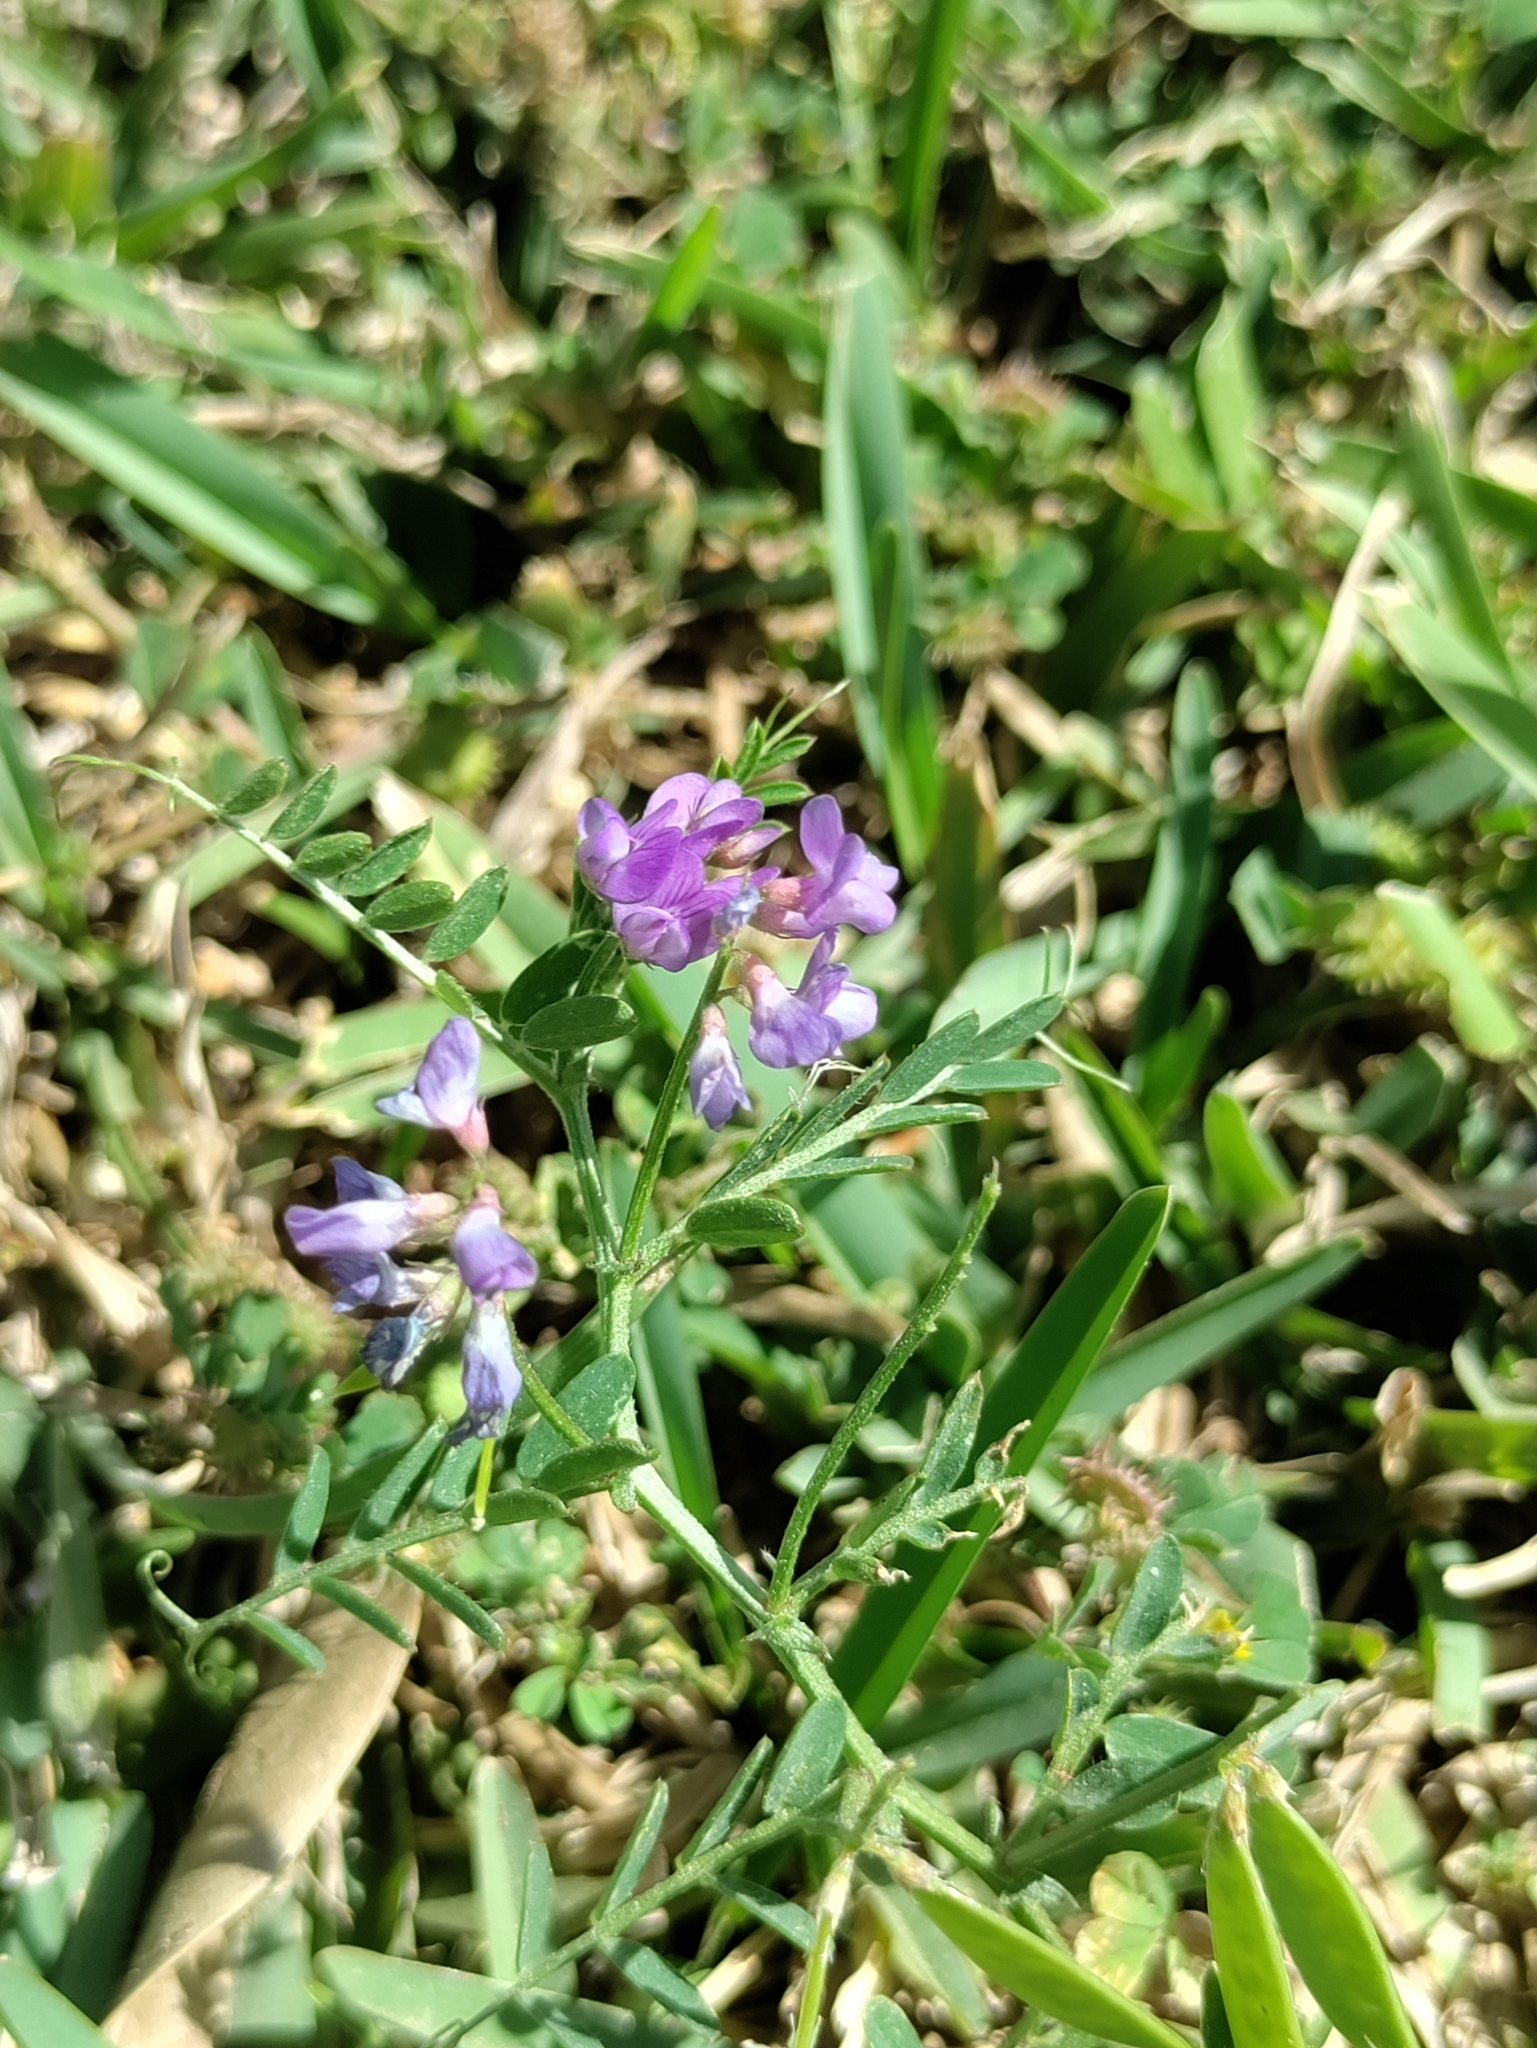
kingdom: Plantae
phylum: Tracheophyta
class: Magnoliopsida
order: Fabales
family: Fabaceae
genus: Vicia
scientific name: Vicia ludoviciana
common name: Louisiana vetch
